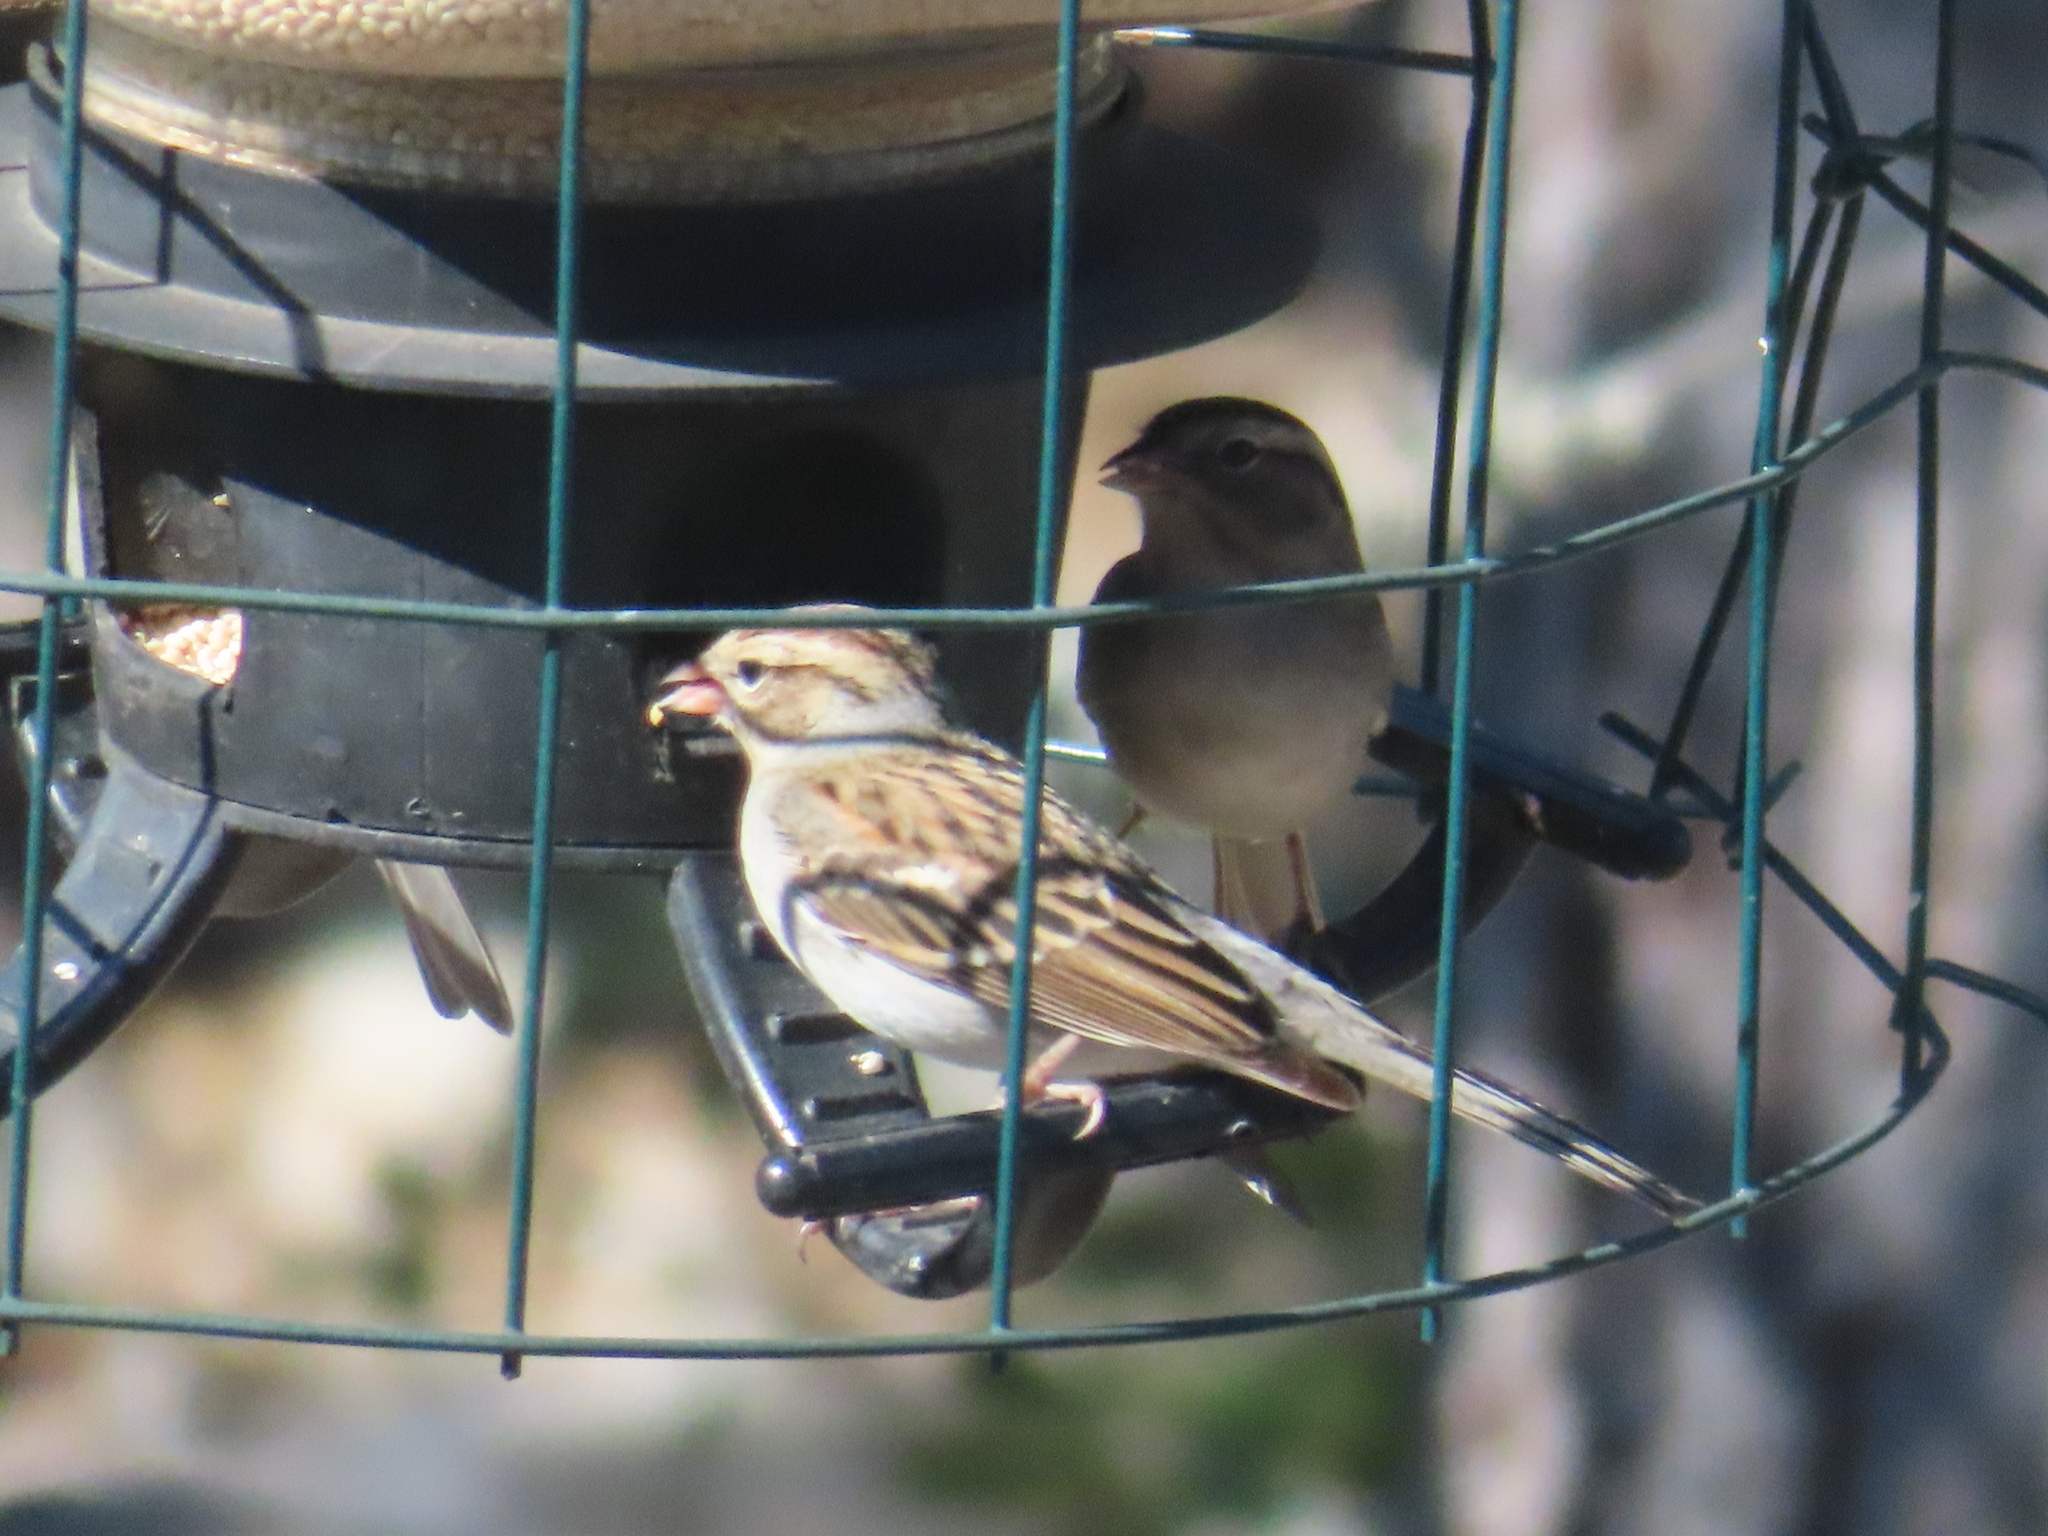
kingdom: Animalia
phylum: Chordata
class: Aves
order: Passeriformes
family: Passerellidae
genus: Spizella
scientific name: Spizella passerina
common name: Chipping sparrow
